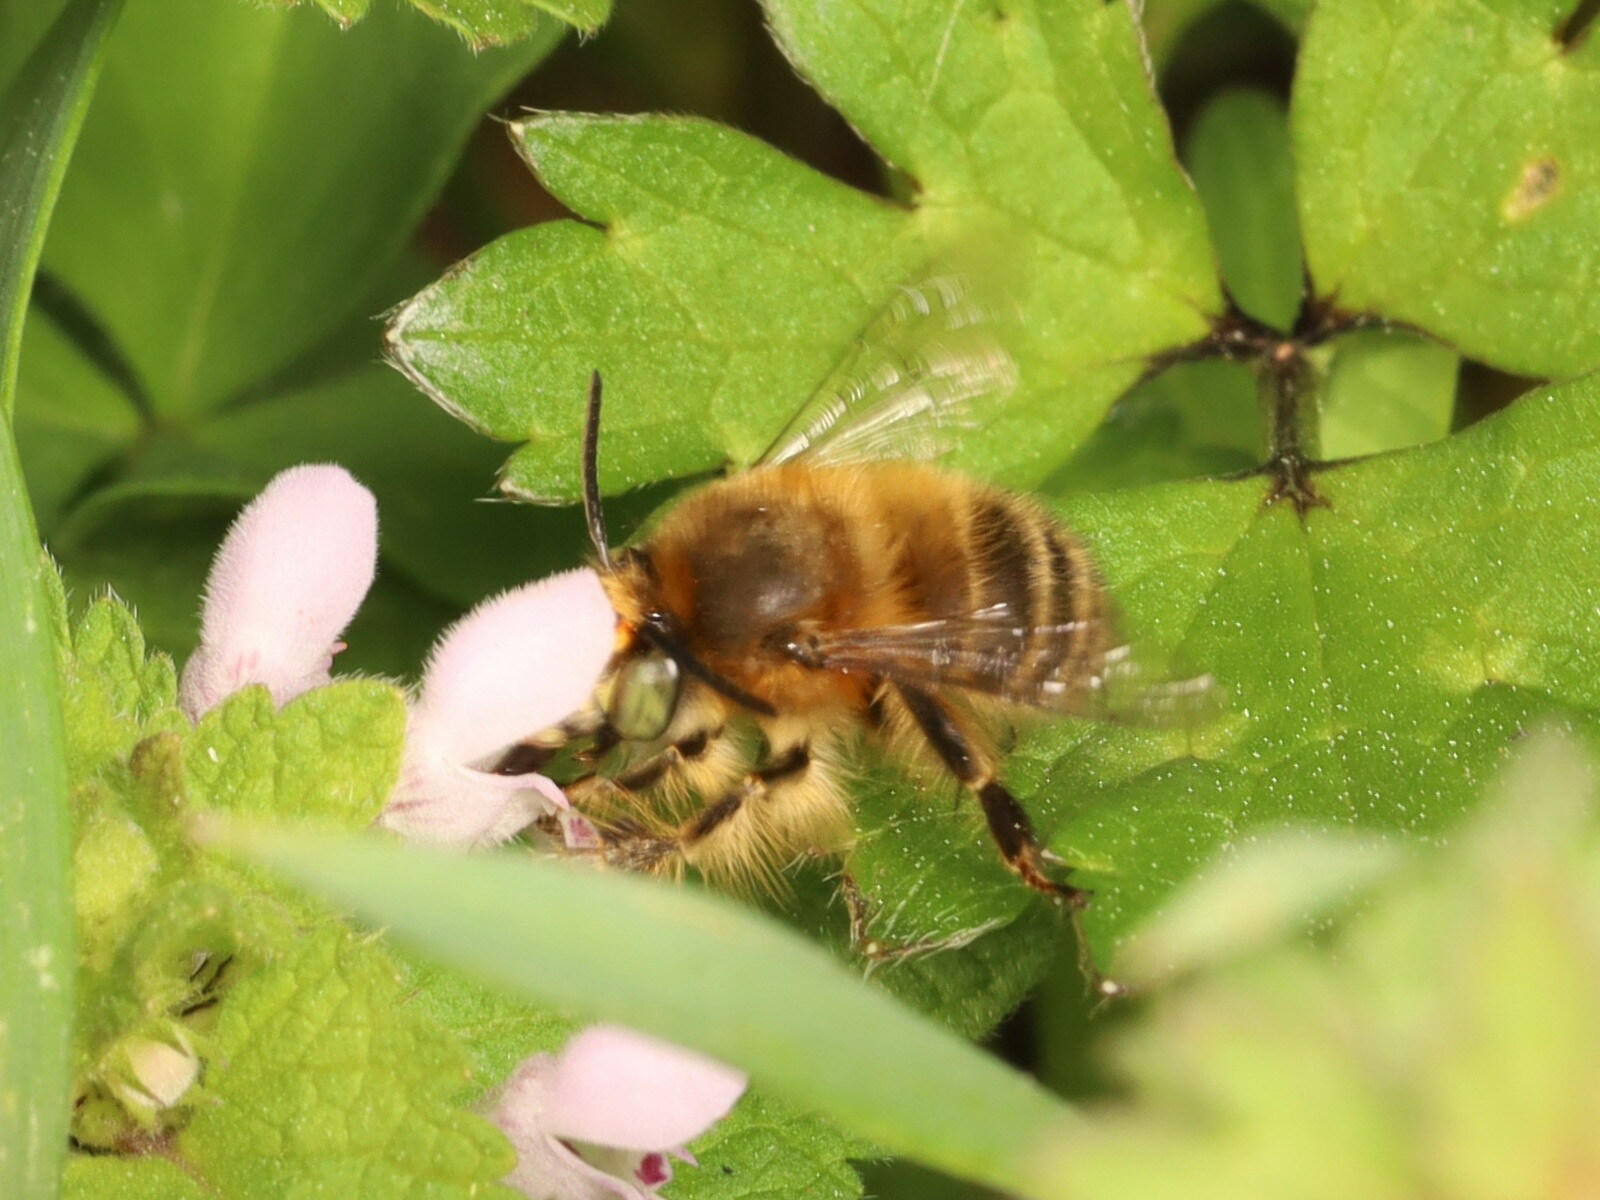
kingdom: Animalia
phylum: Arthropoda
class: Insecta
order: Hymenoptera
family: Apidae
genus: Anthophora
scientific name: Anthophora crinipes
